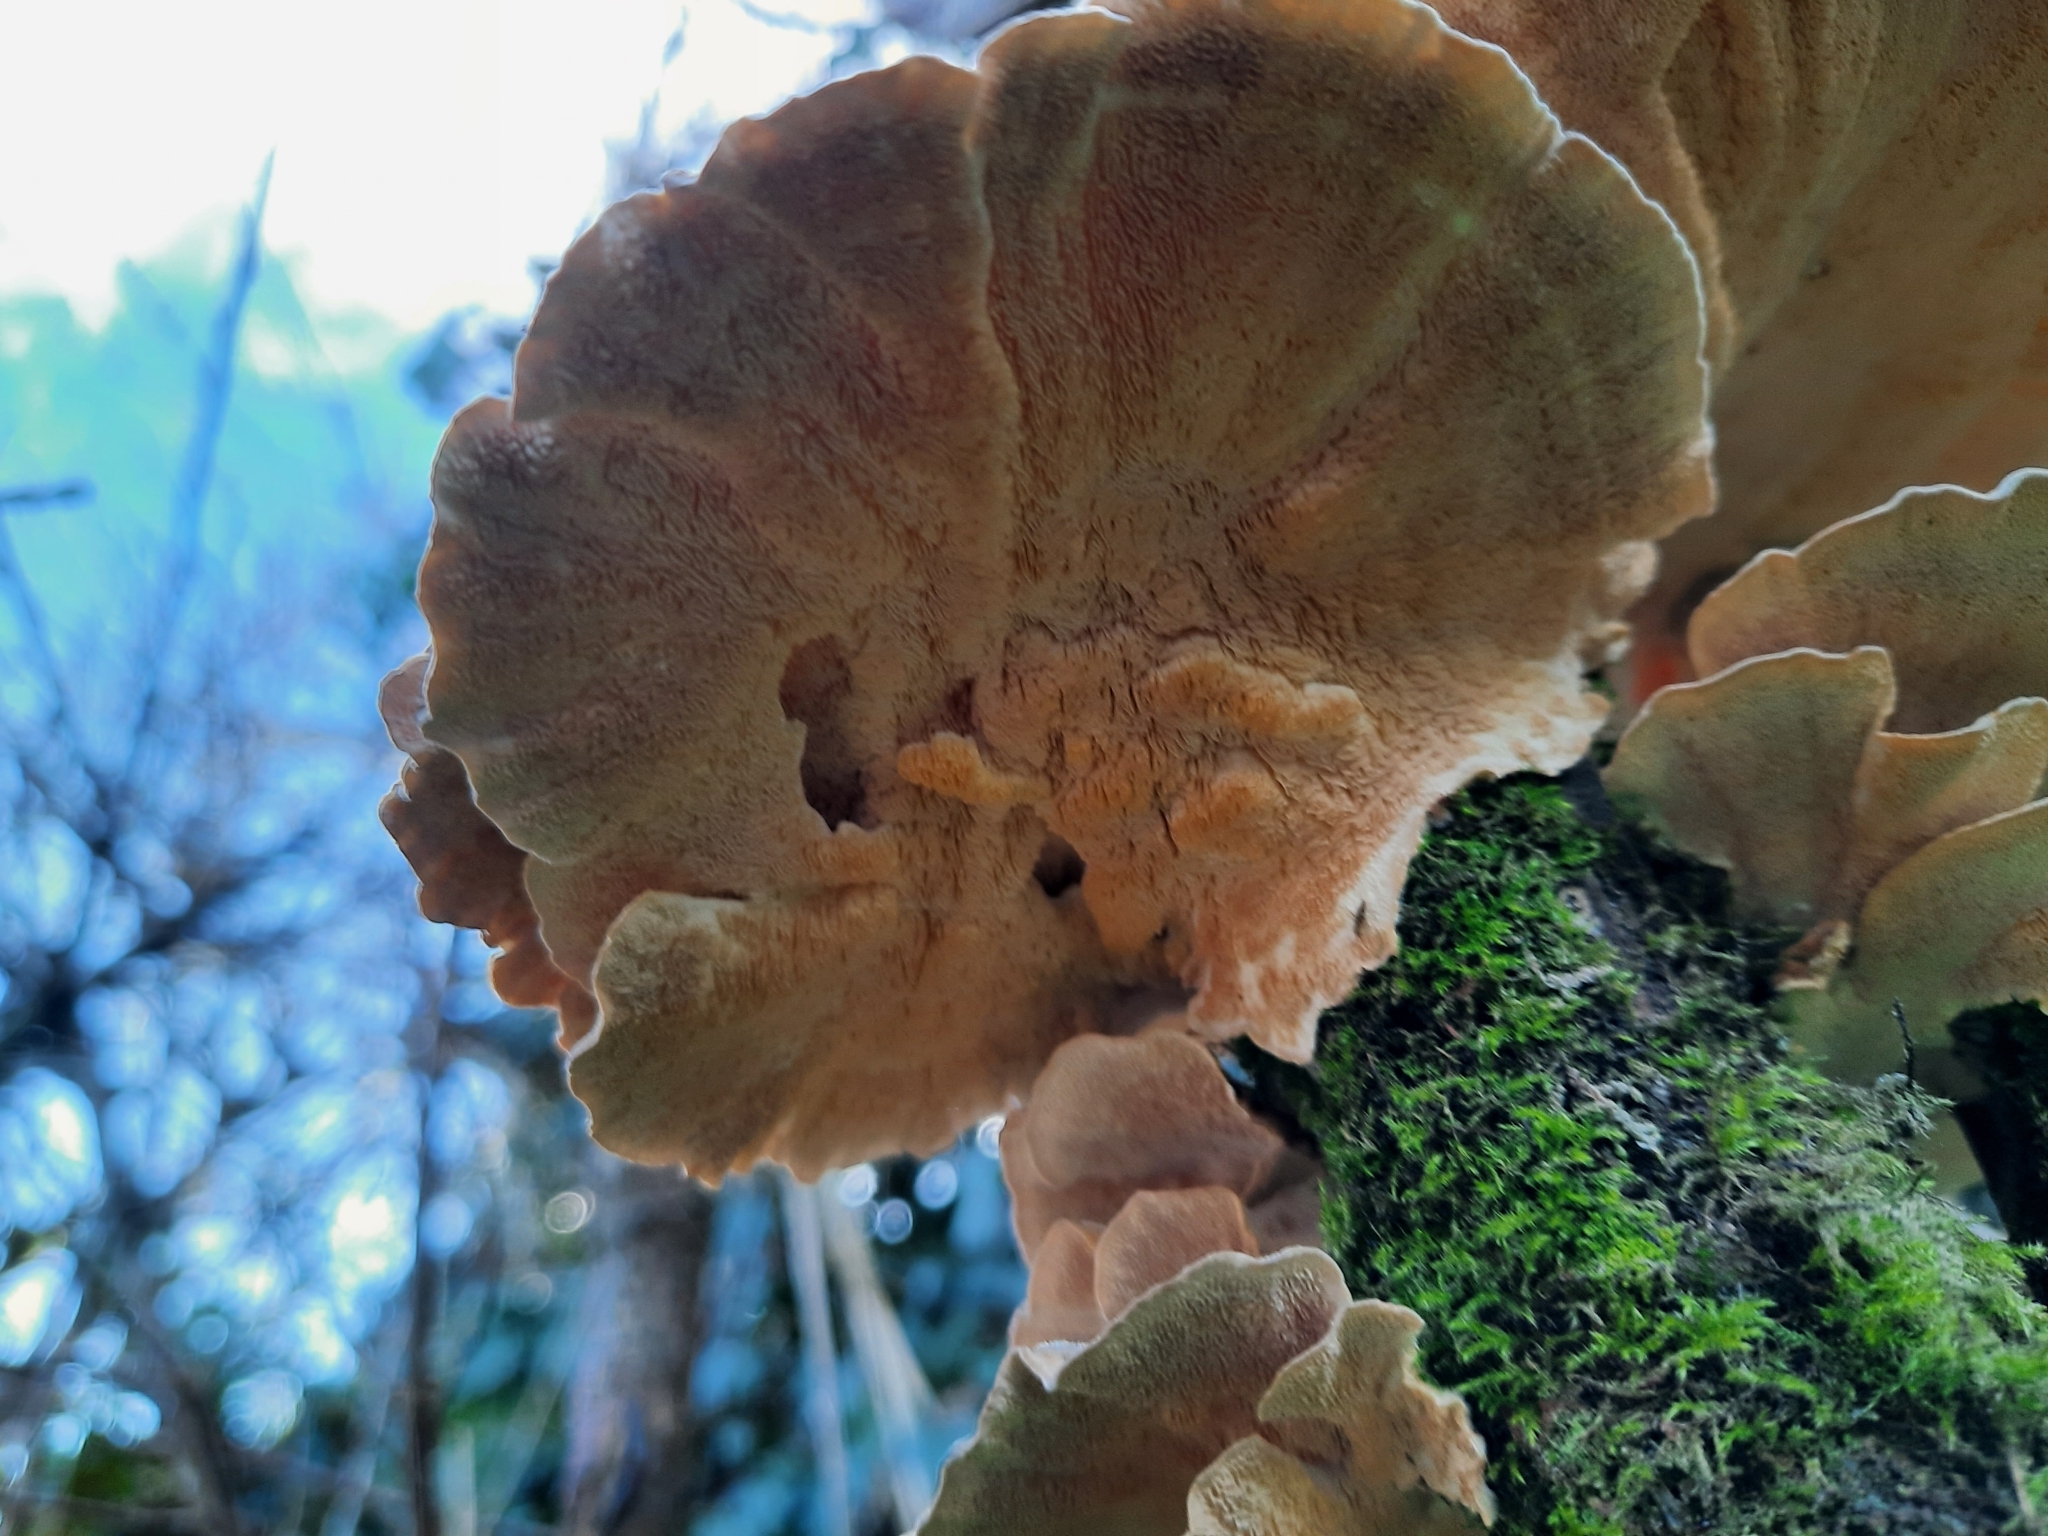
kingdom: Fungi
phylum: Basidiomycota
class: Agaricomycetes
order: Polyporales
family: Polyporaceae
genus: Trametes
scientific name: Trametes versicolor
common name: Turkeytail
